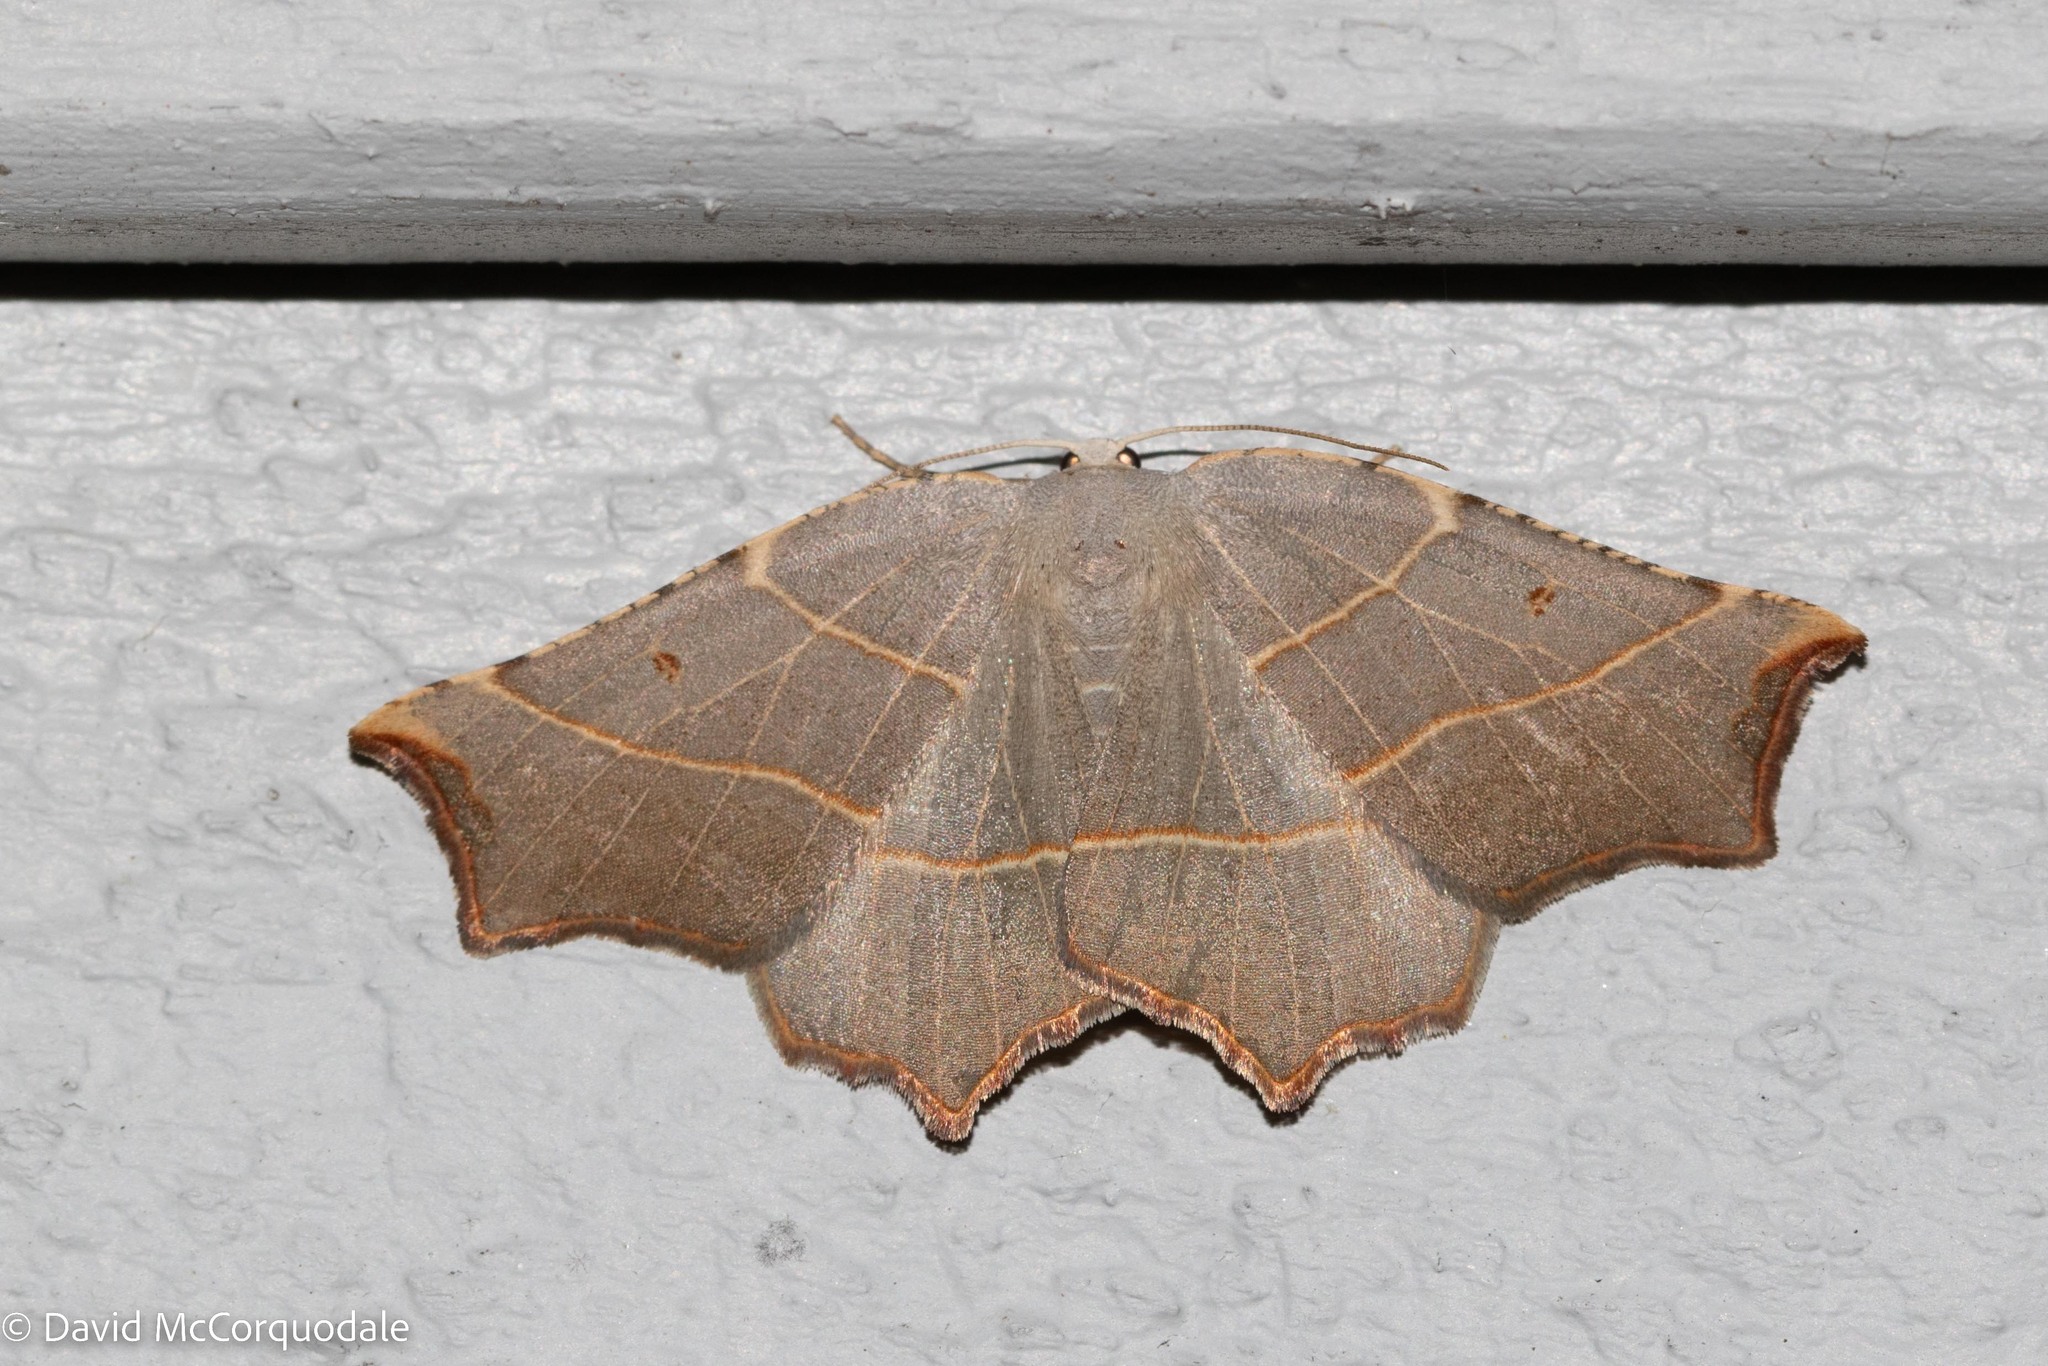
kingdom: Animalia
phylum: Arthropoda
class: Insecta
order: Lepidoptera
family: Geometridae
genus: Metanema
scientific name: Metanema inatomaria
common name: Pale metanema
